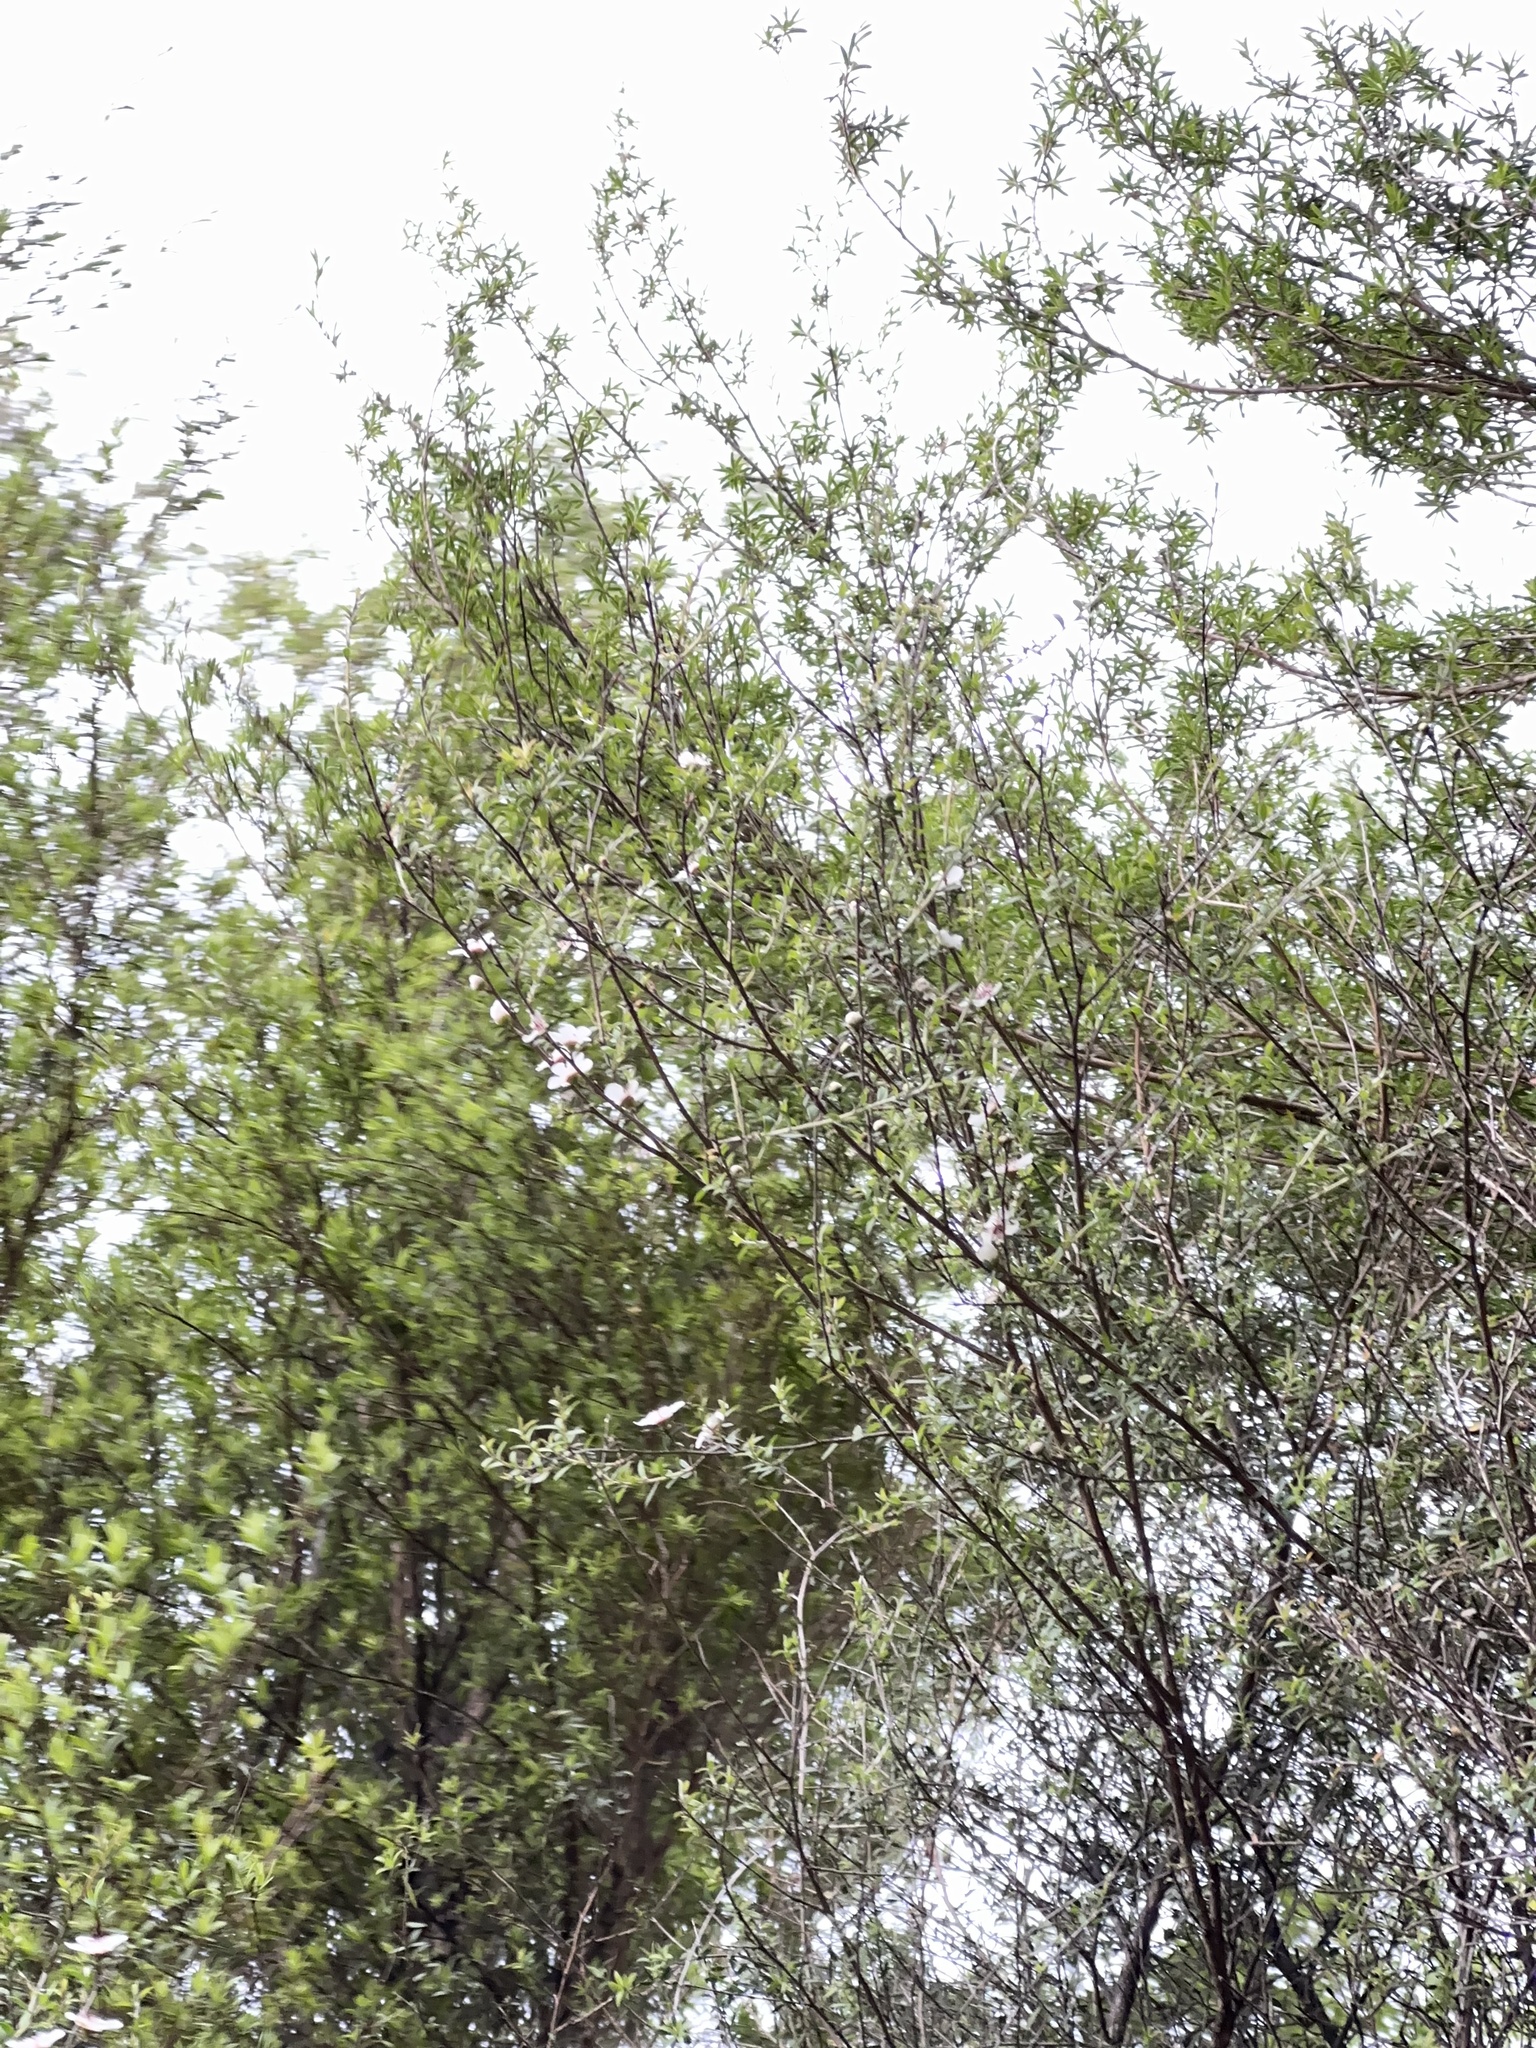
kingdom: Plantae
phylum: Tracheophyta
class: Magnoliopsida
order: Myrtales
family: Myrtaceae
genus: Leptospermum
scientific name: Leptospermum scoparium
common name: Broom tea-tree
